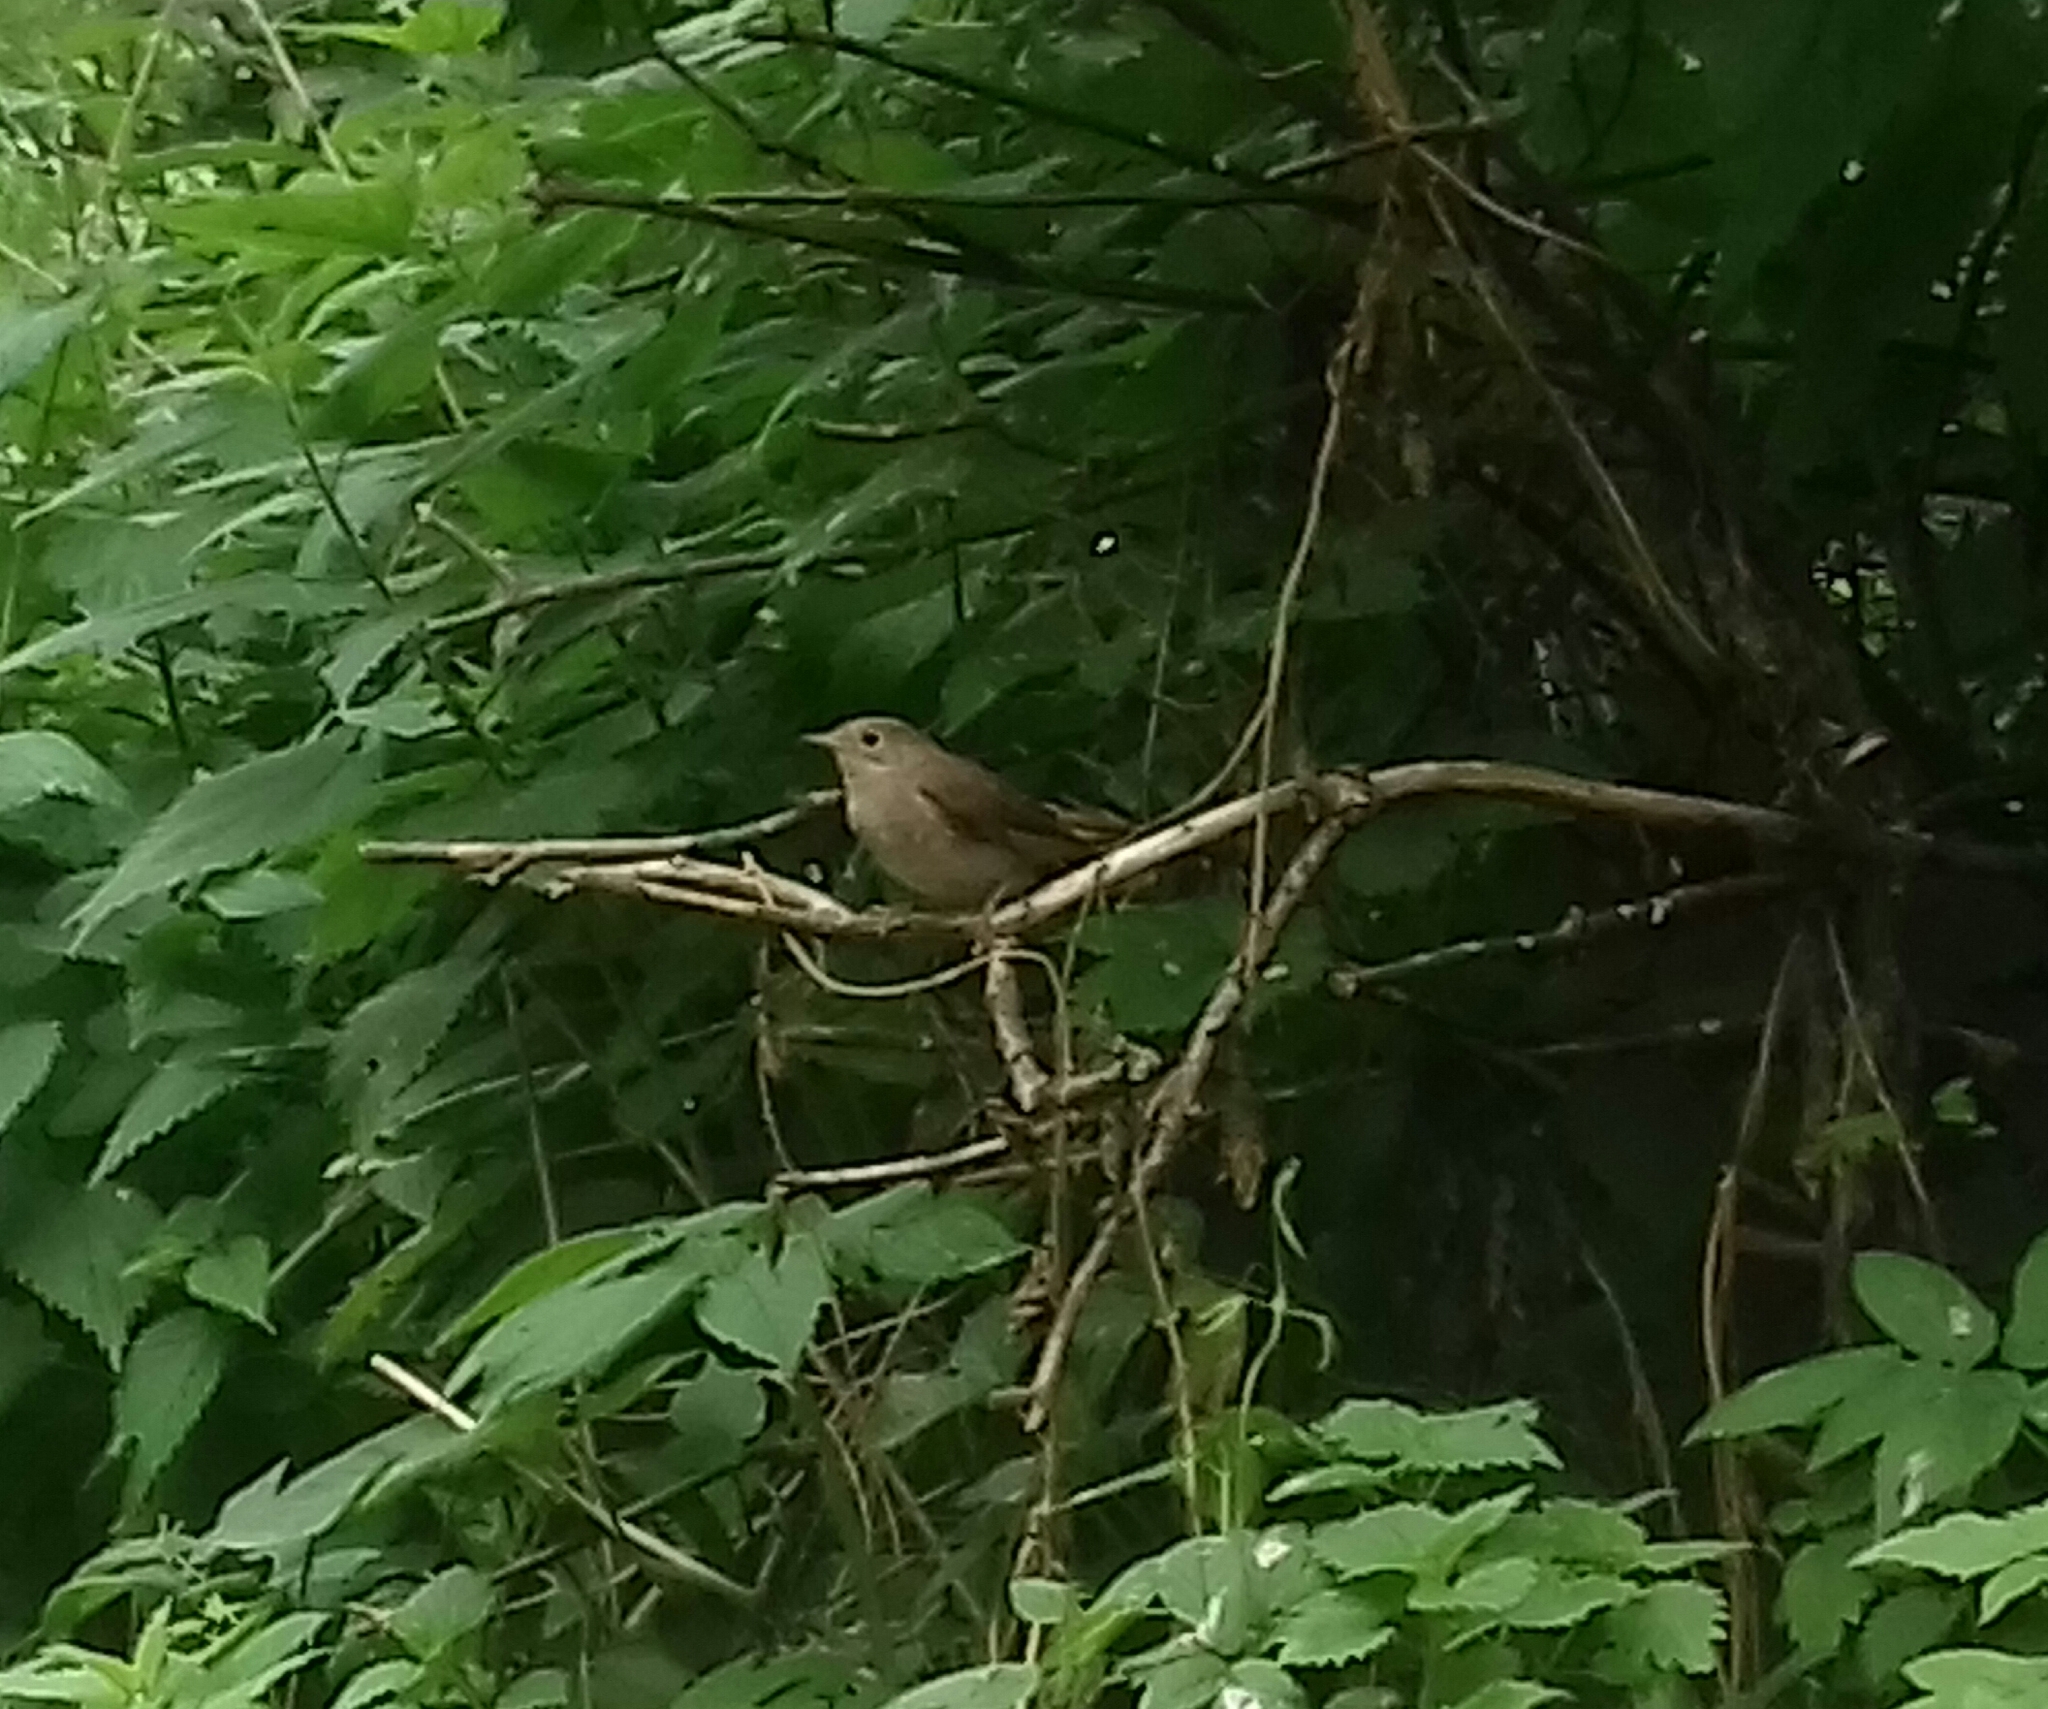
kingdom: Animalia
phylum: Chordata
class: Aves
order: Passeriformes
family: Muscicapidae
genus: Luscinia
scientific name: Luscinia luscinia
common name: Thrush nightingale
